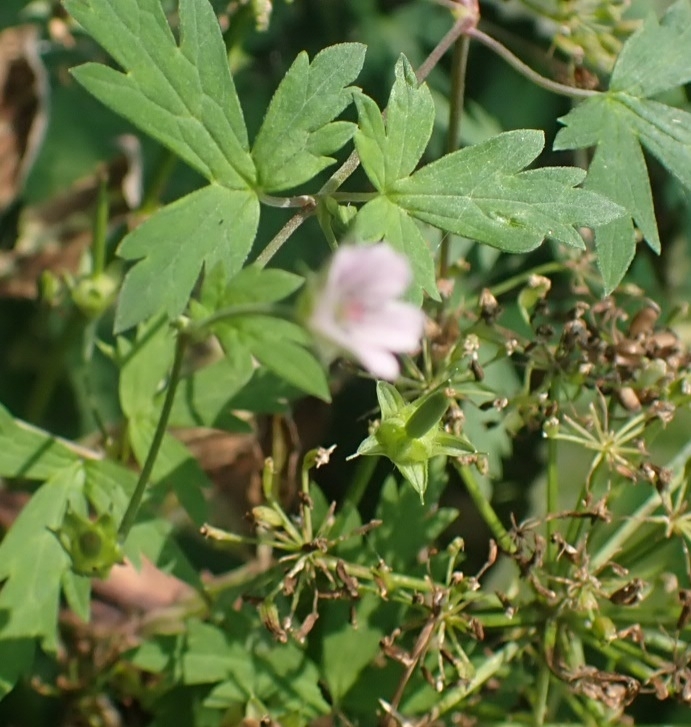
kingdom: Plantae
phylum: Tracheophyta
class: Magnoliopsida
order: Geraniales
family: Geraniaceae
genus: Geranium
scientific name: Geranium sibiricum
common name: Siberian crane's-bill
